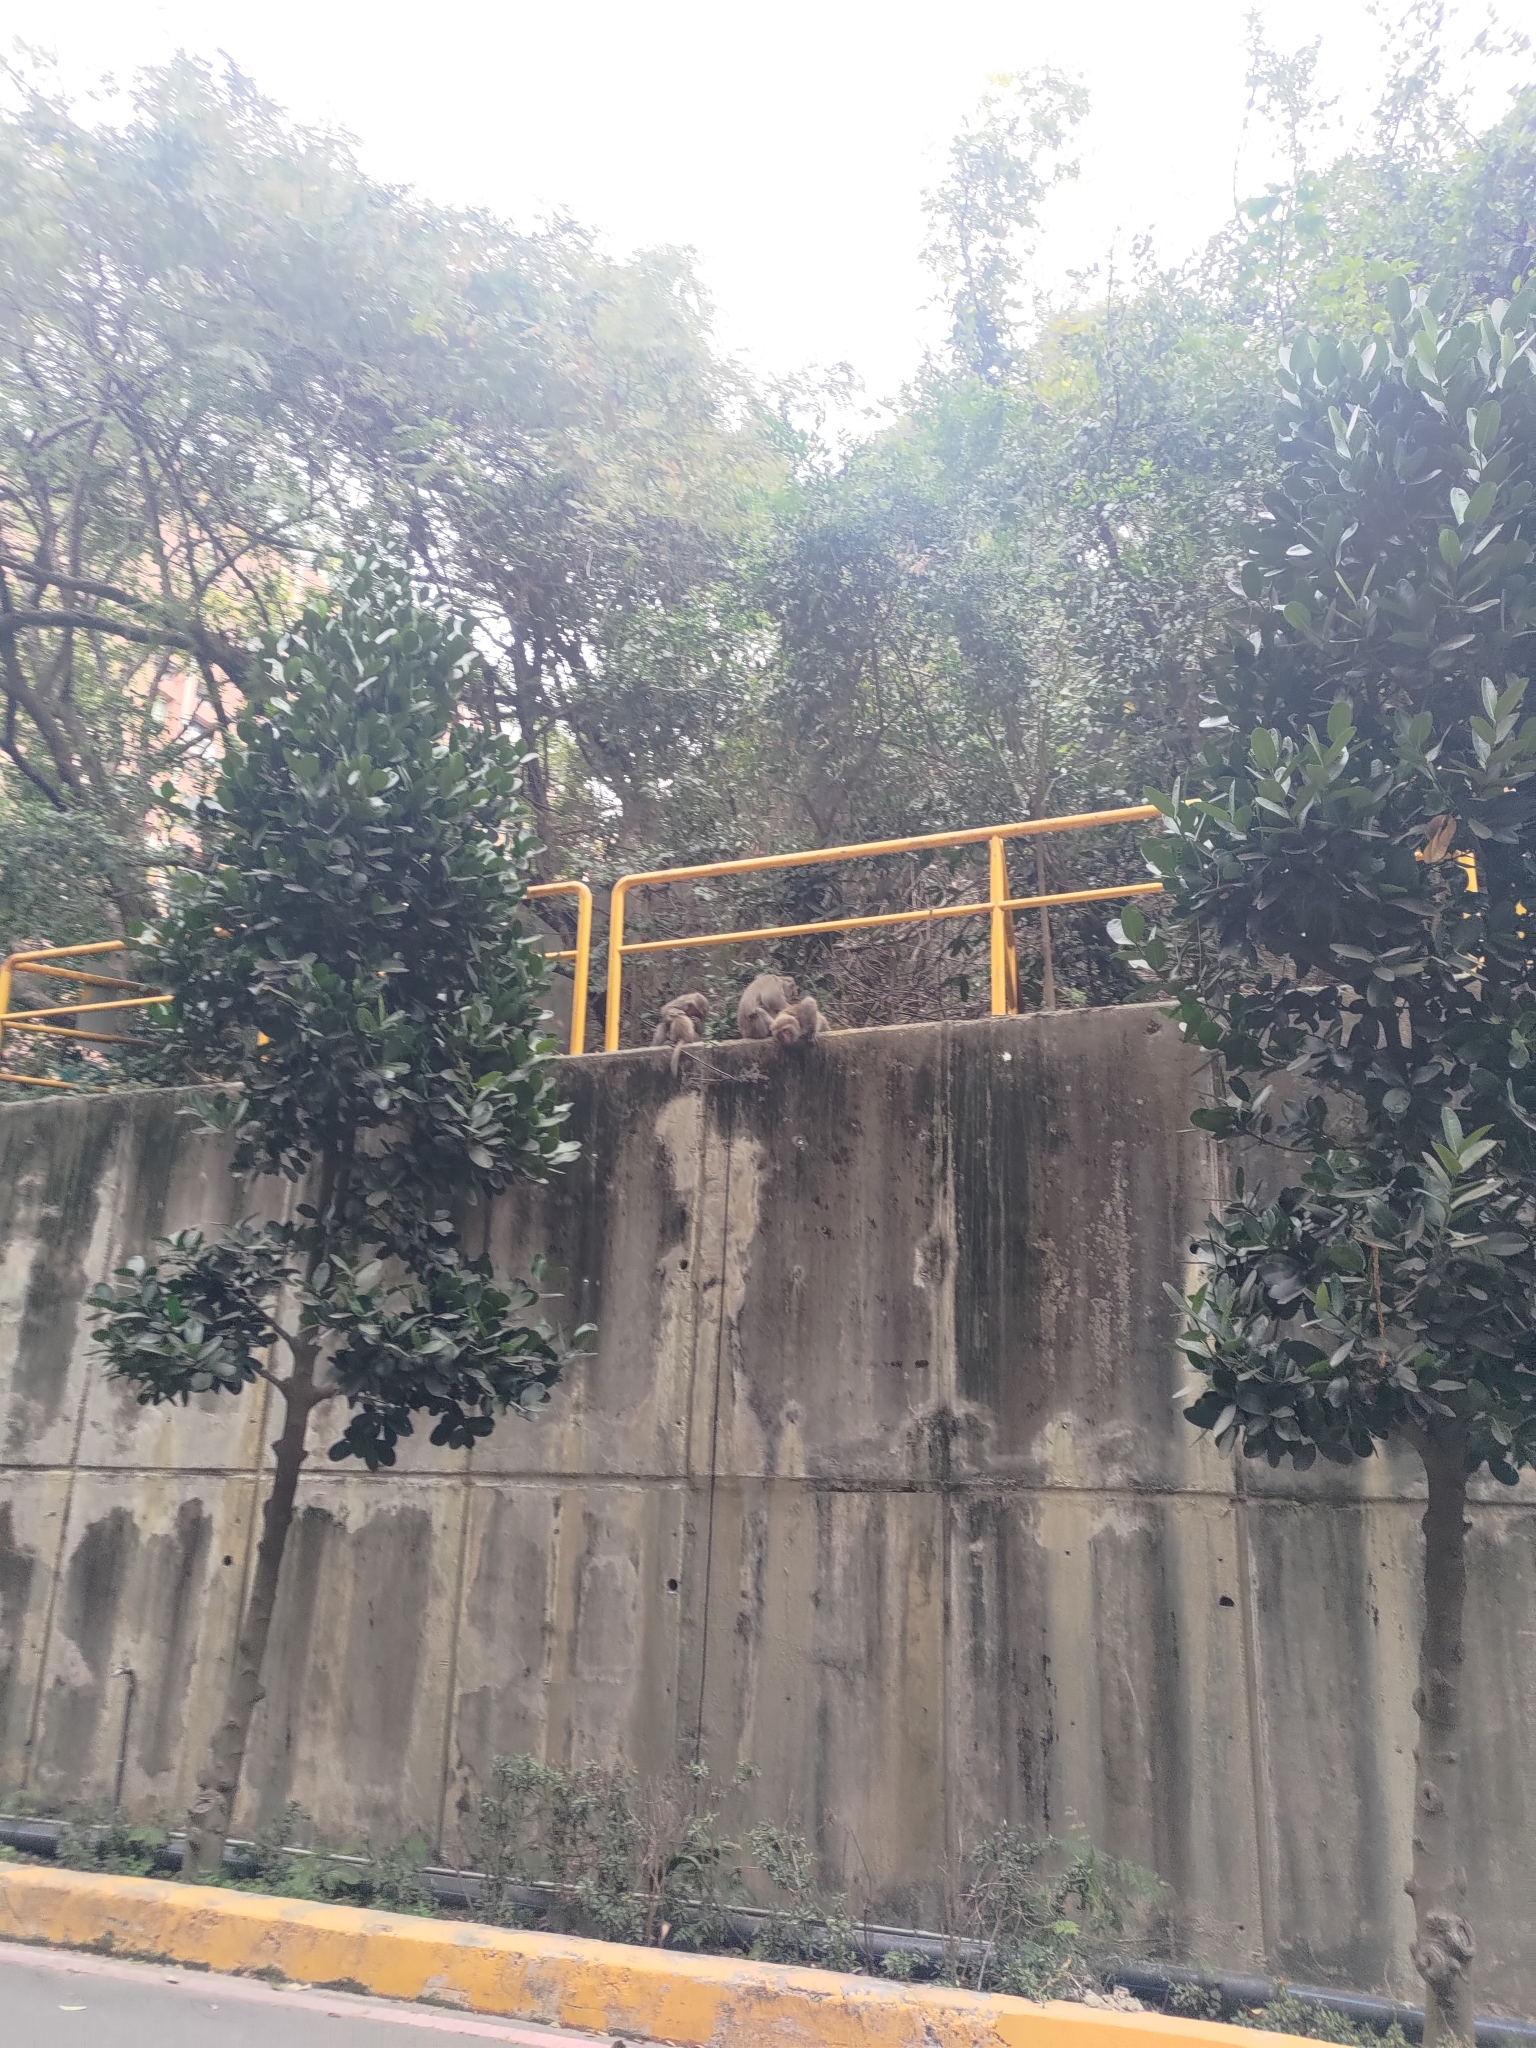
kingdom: Animalia
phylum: Chordata
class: Mammalia
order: Primates
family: Cercopithecidae
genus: Macaca
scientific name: Macaca cyclopis
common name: Formosan rock macaque
